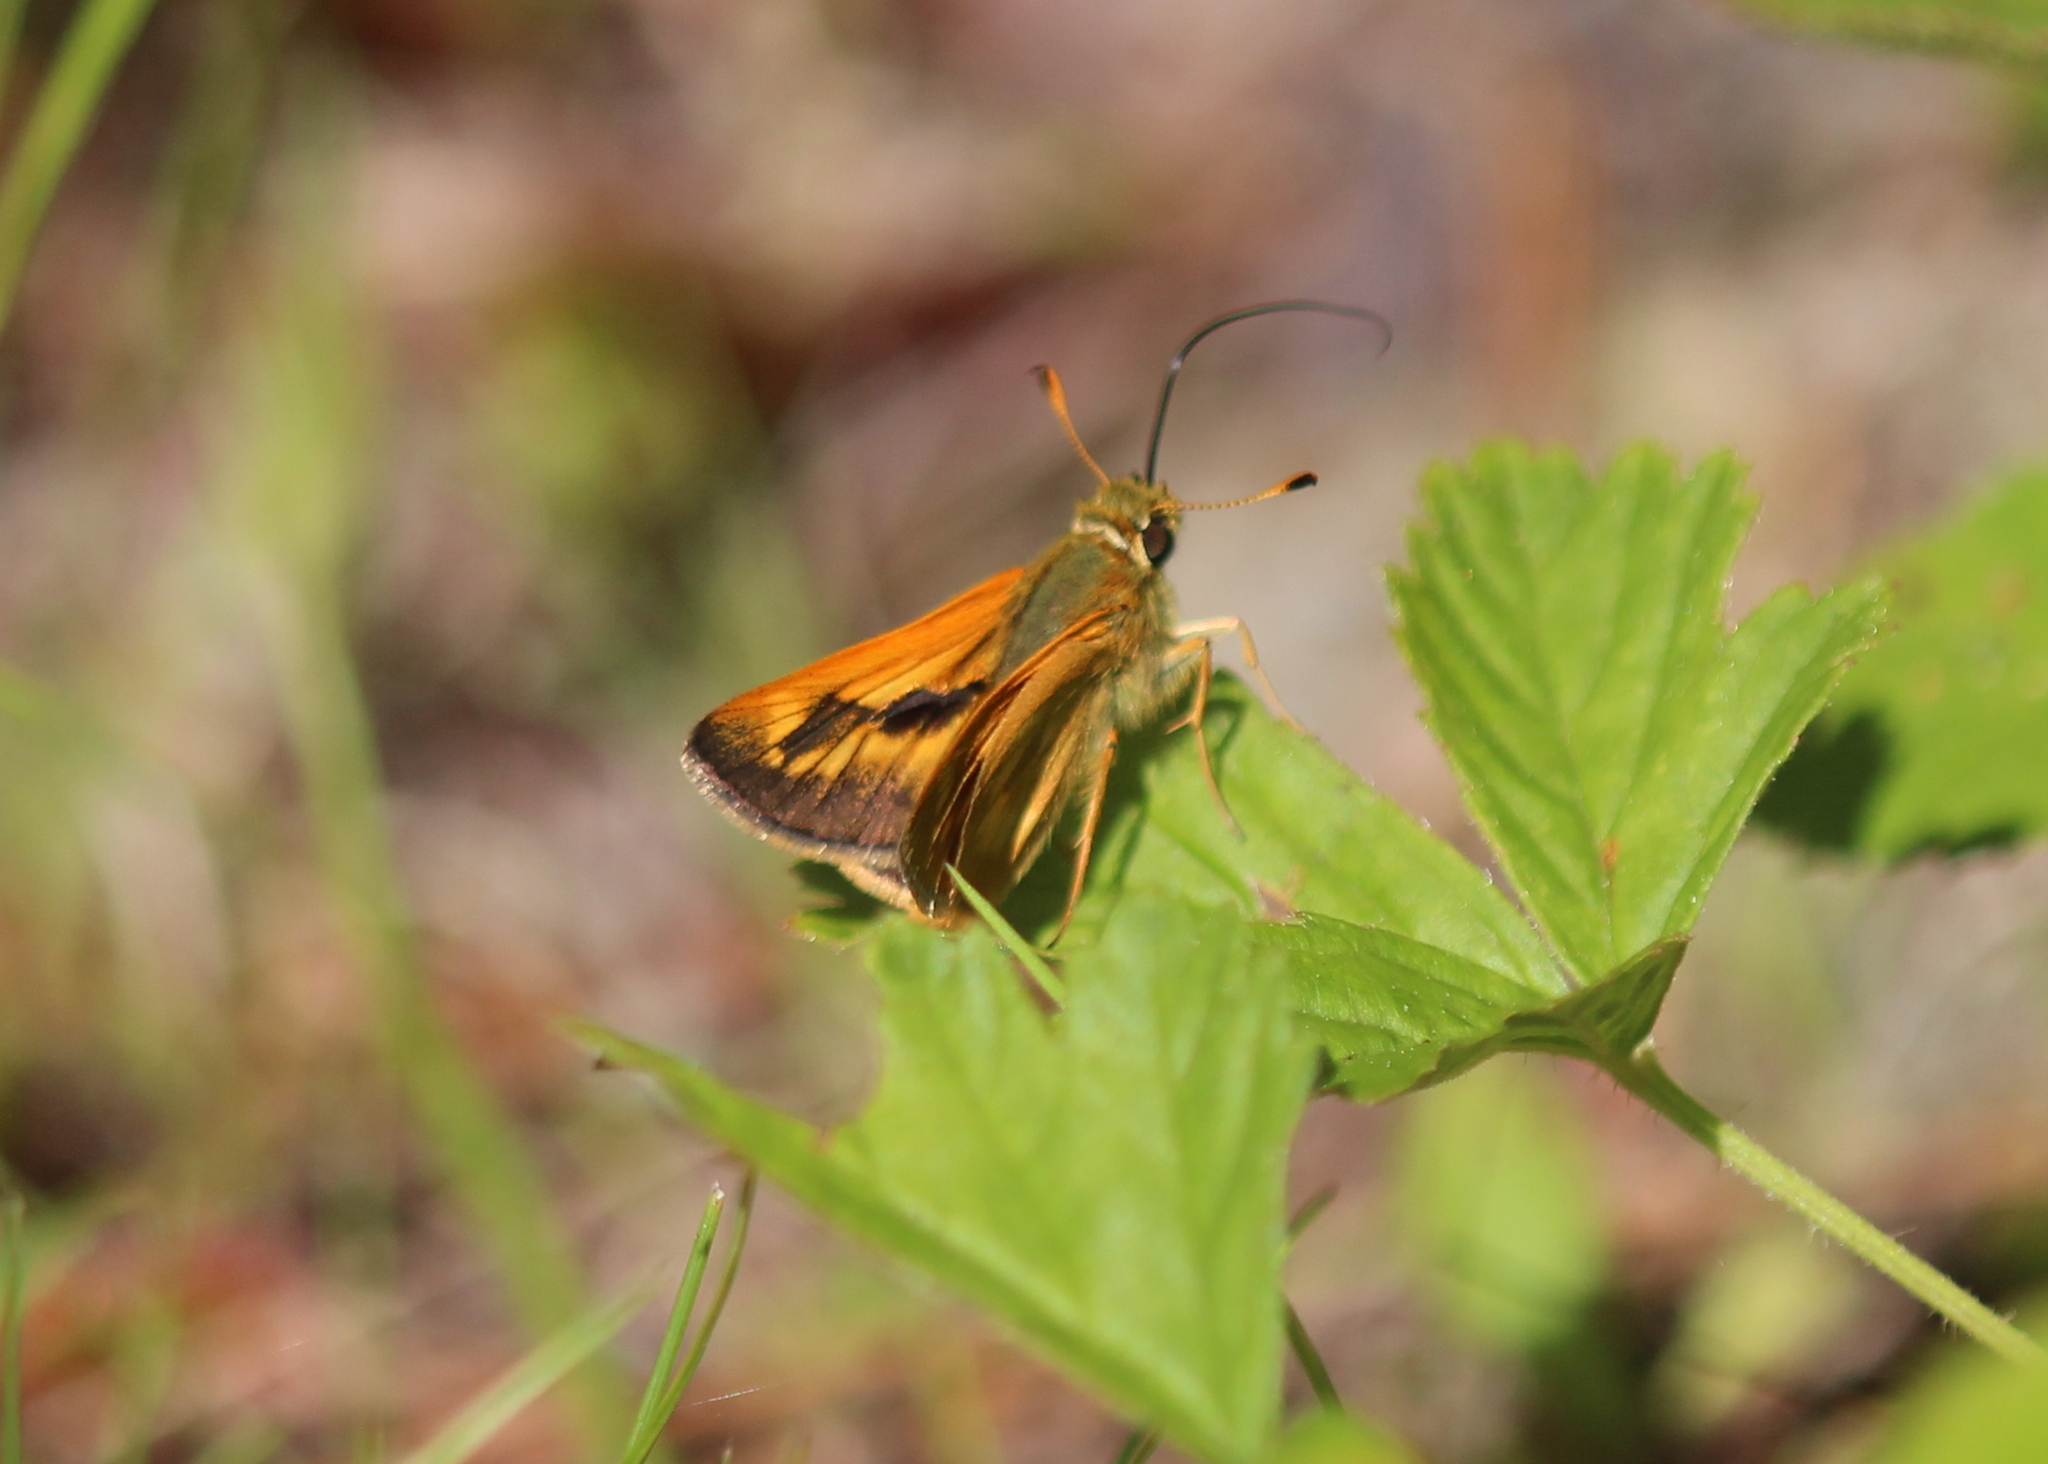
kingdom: Animalia
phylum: Arthropoda
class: Insecta
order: Lepidoptera
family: Hesperiidae
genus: Polites
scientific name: Polites mystic
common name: Long dash
